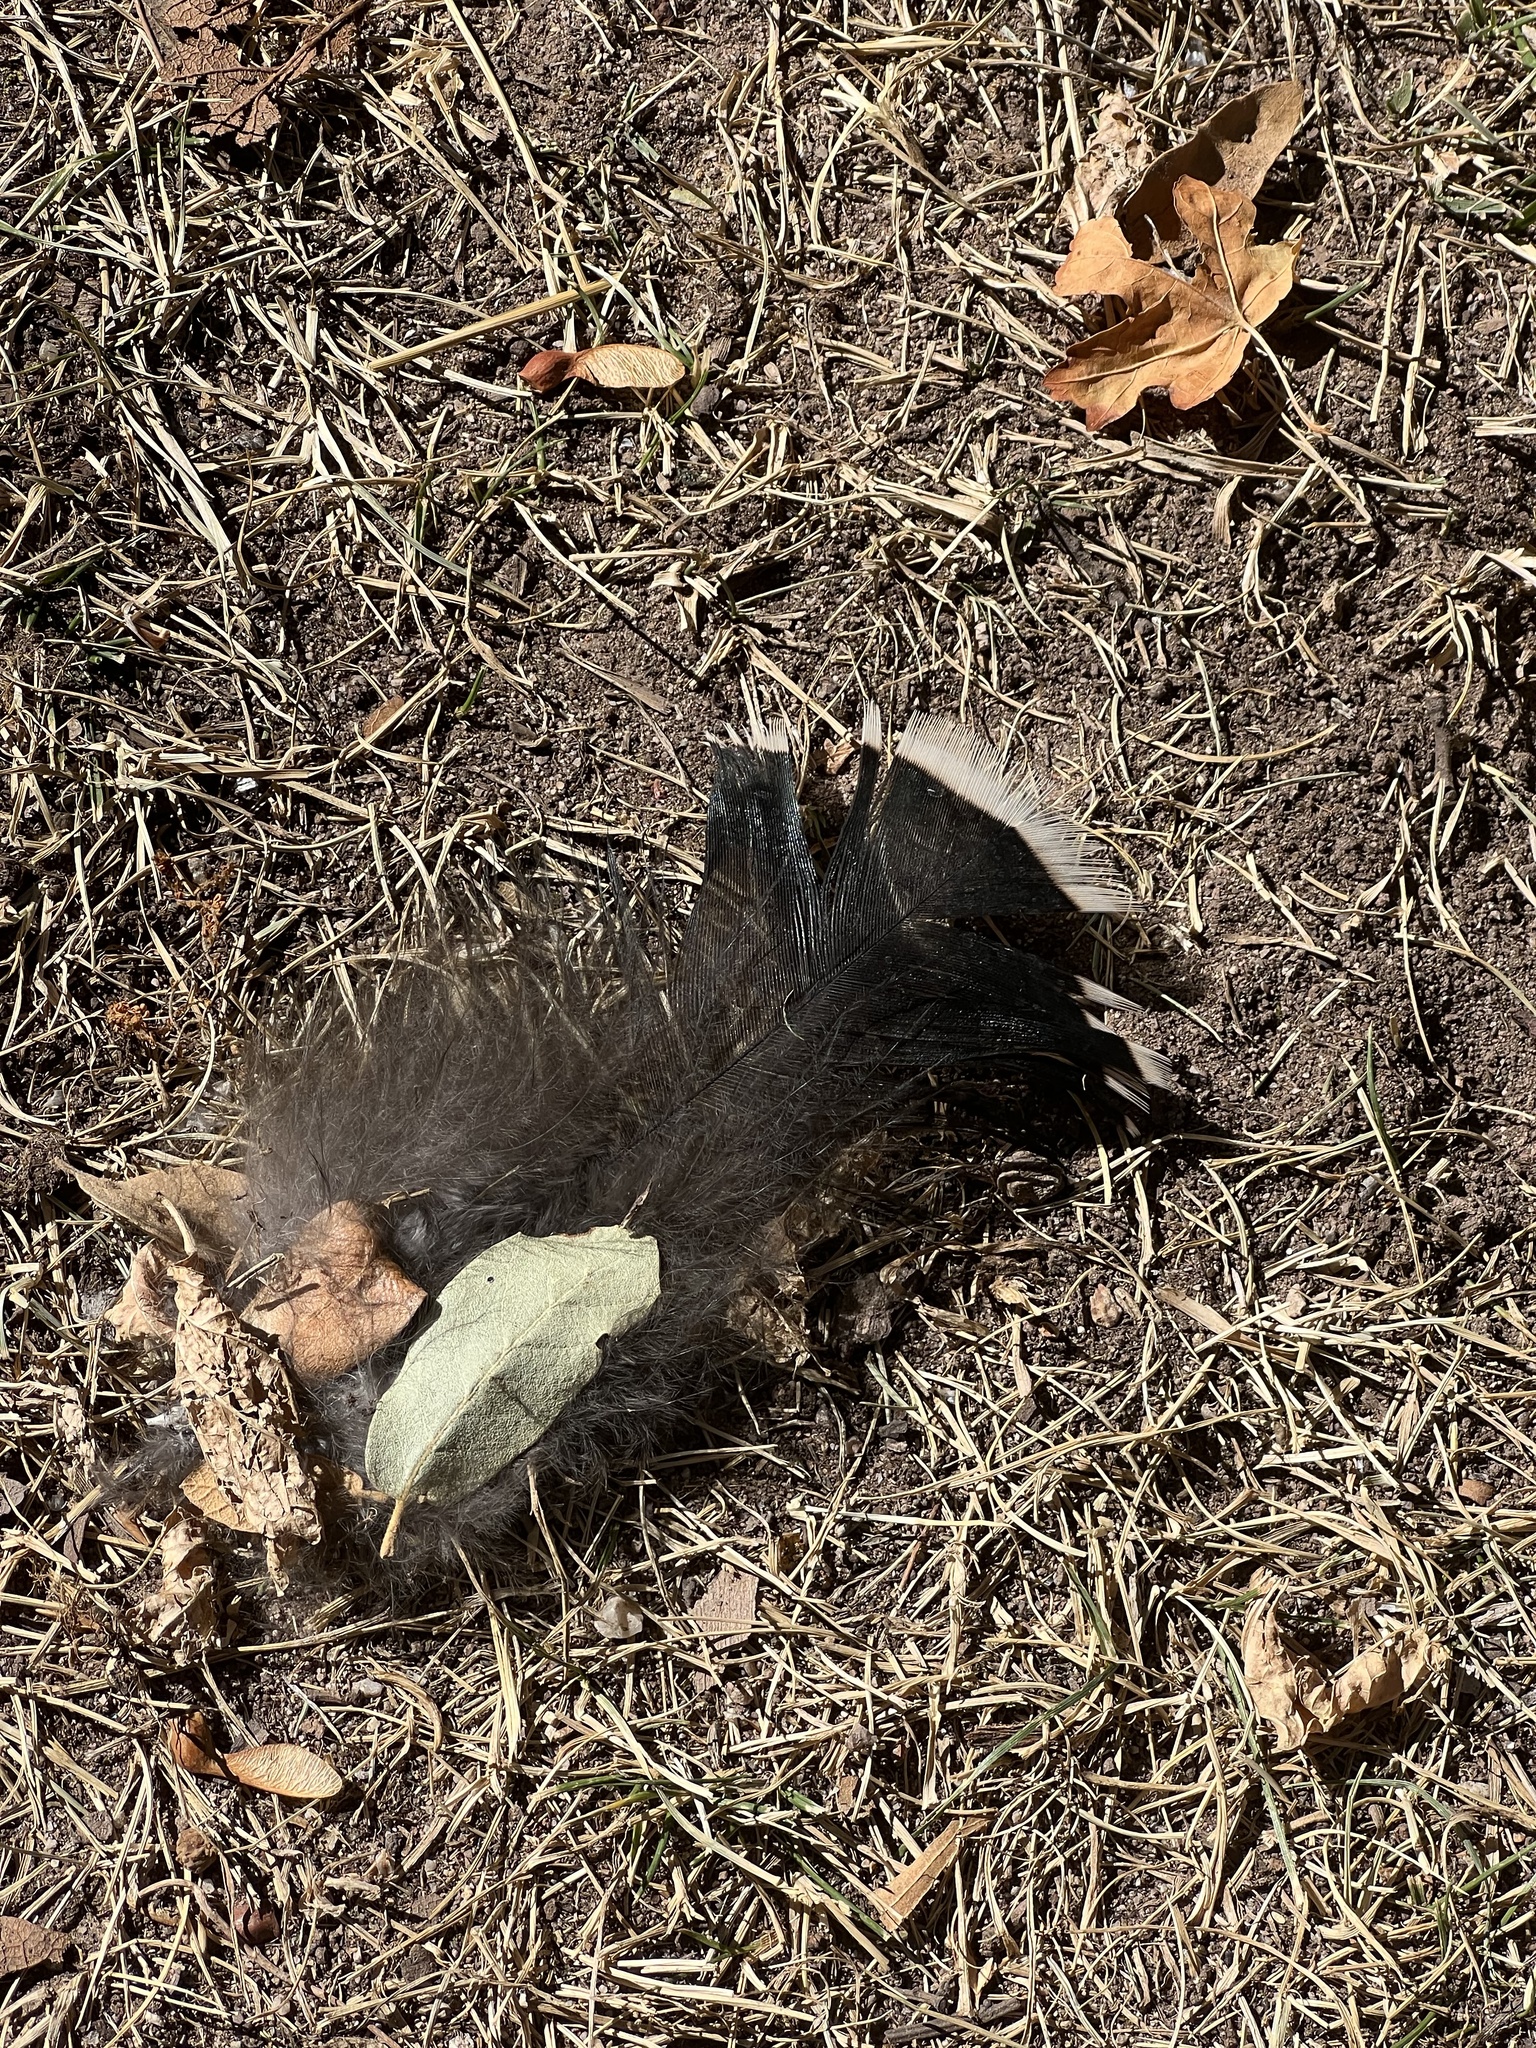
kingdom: Animalia
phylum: Chordata
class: Aves
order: Galliformes
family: Phasianidae
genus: Meleagris
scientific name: Meleagris gallopavo
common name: Wild turkey
